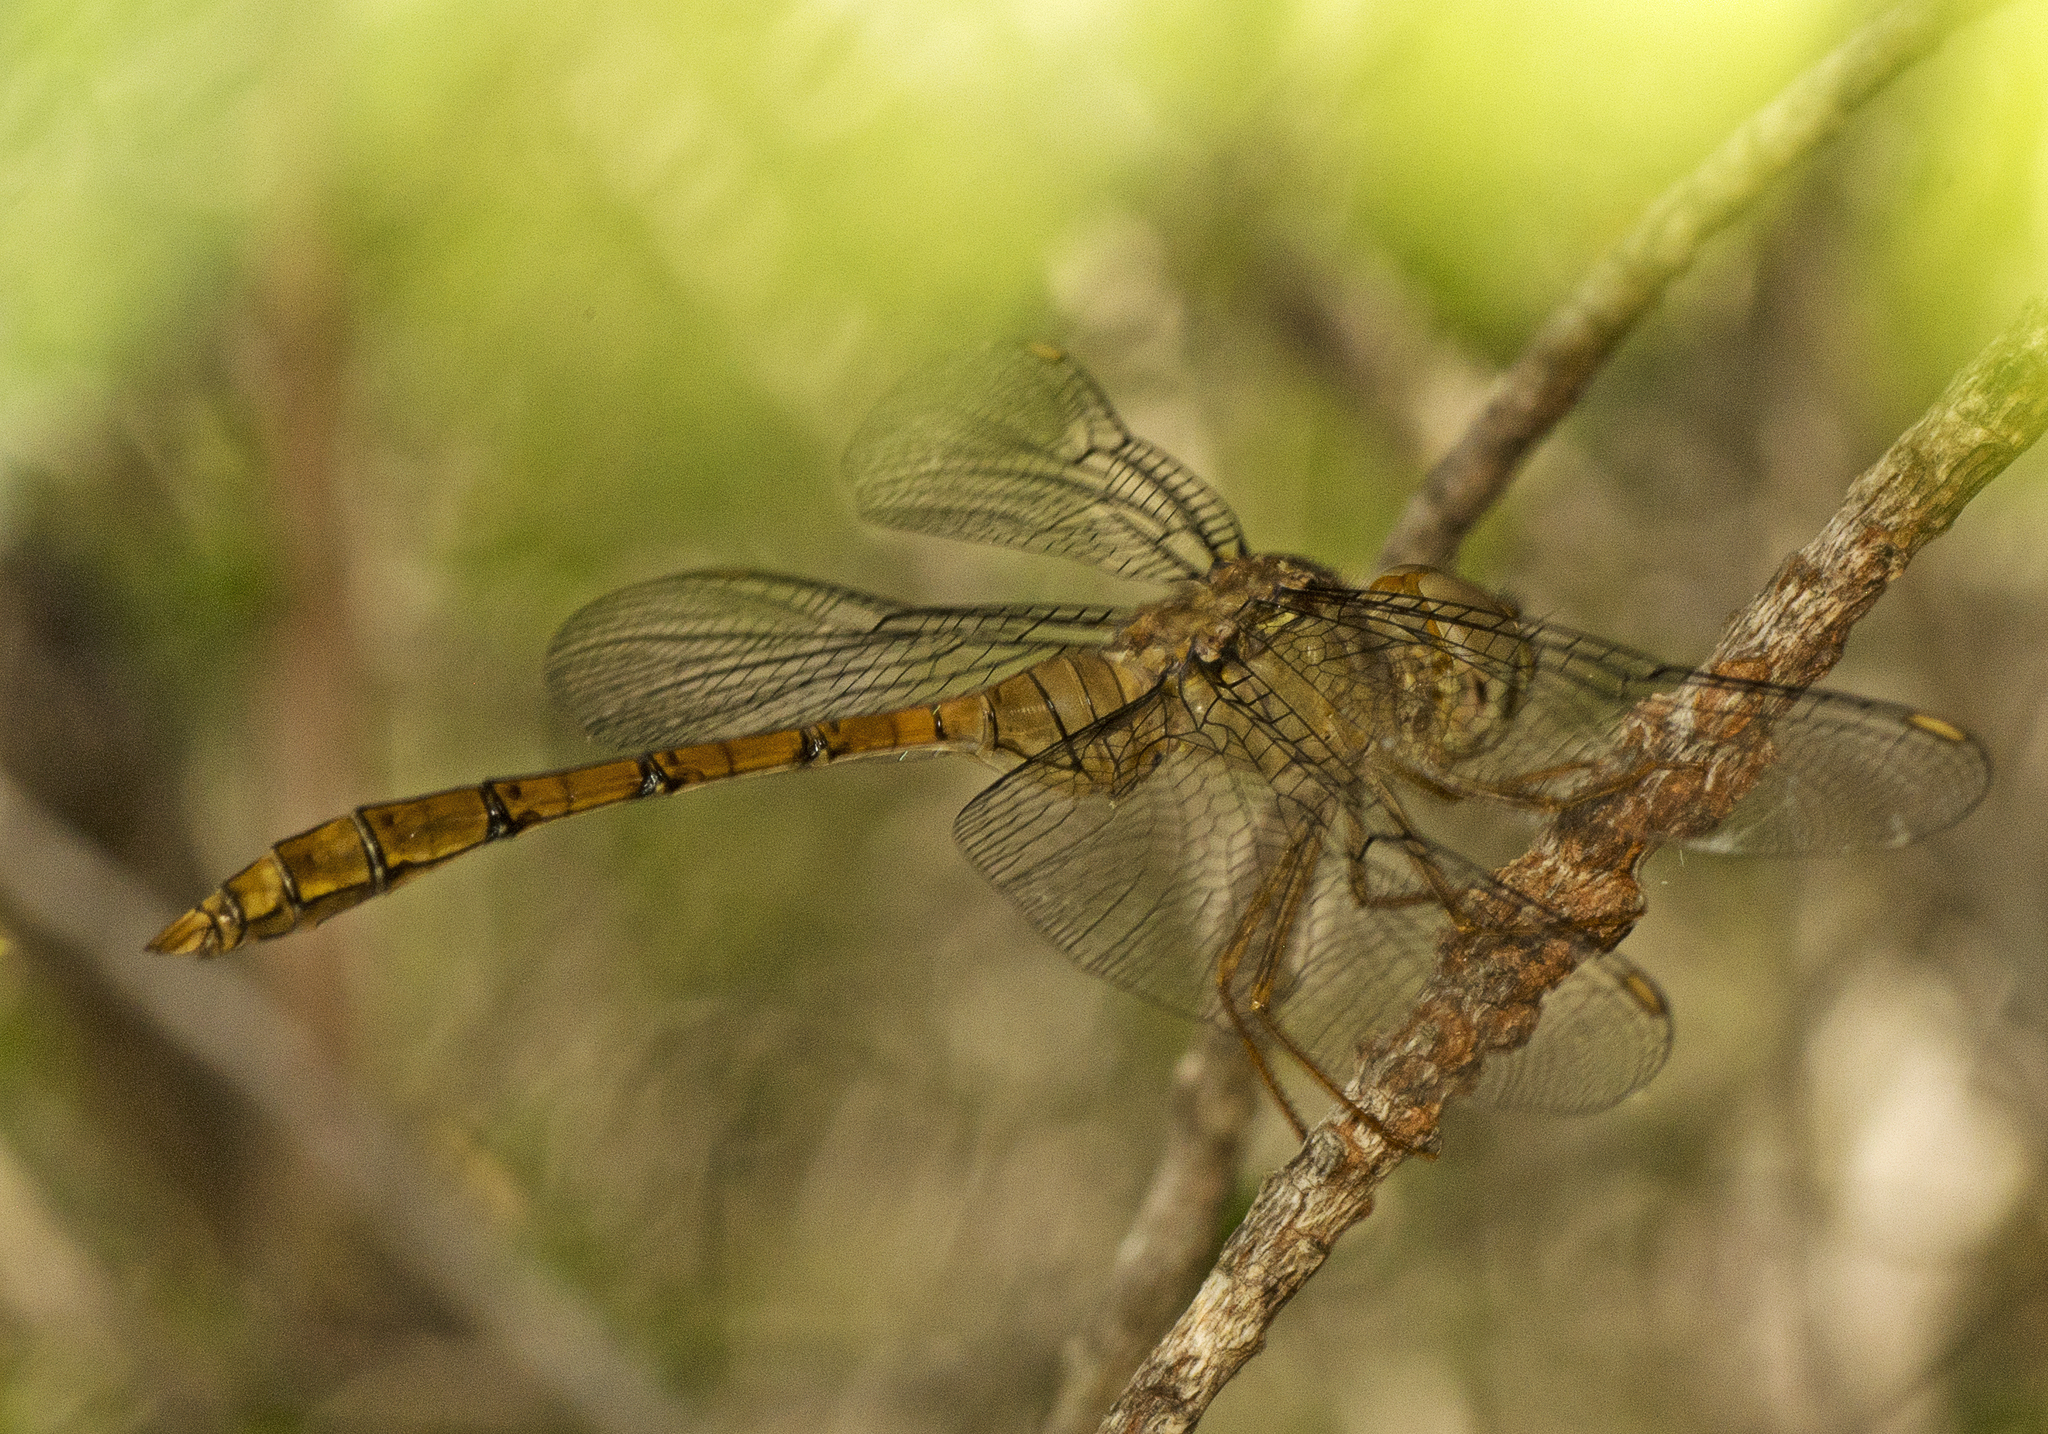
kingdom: Animalia
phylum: Arthropoda
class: Insecta
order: Odonata
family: Libellulidae
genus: Zyxomma
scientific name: Zyxomma elgneri
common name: Short-tailed duskdarter
